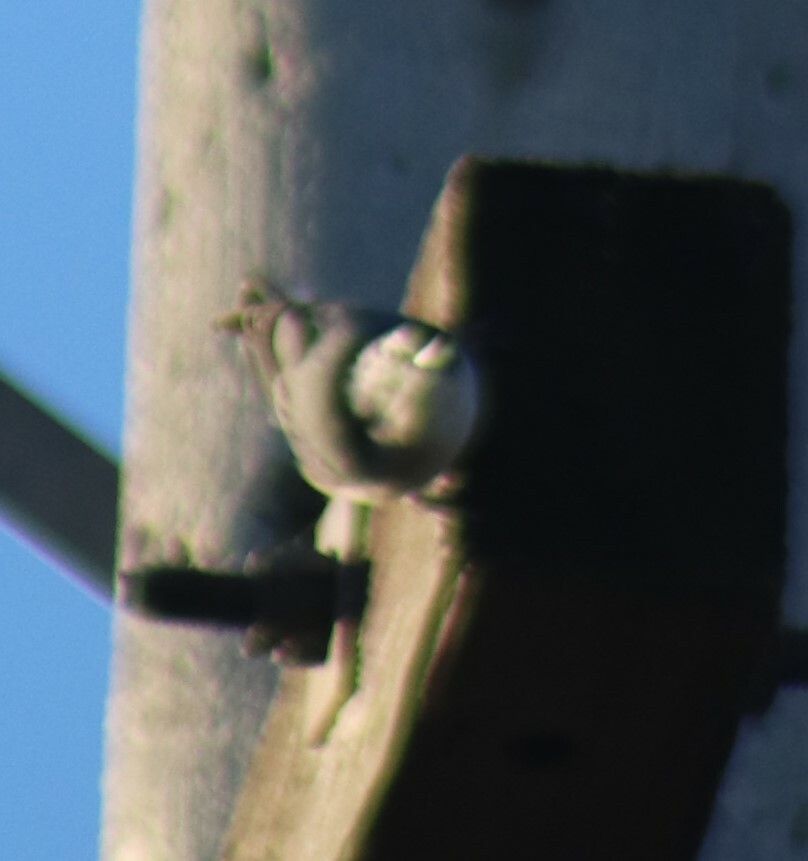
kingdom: Animalia
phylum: Chordata
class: Aves
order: Passeriformes
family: Sittidae
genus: Sitta
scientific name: Sitta carolinensis
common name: White-breasted nuthatch
